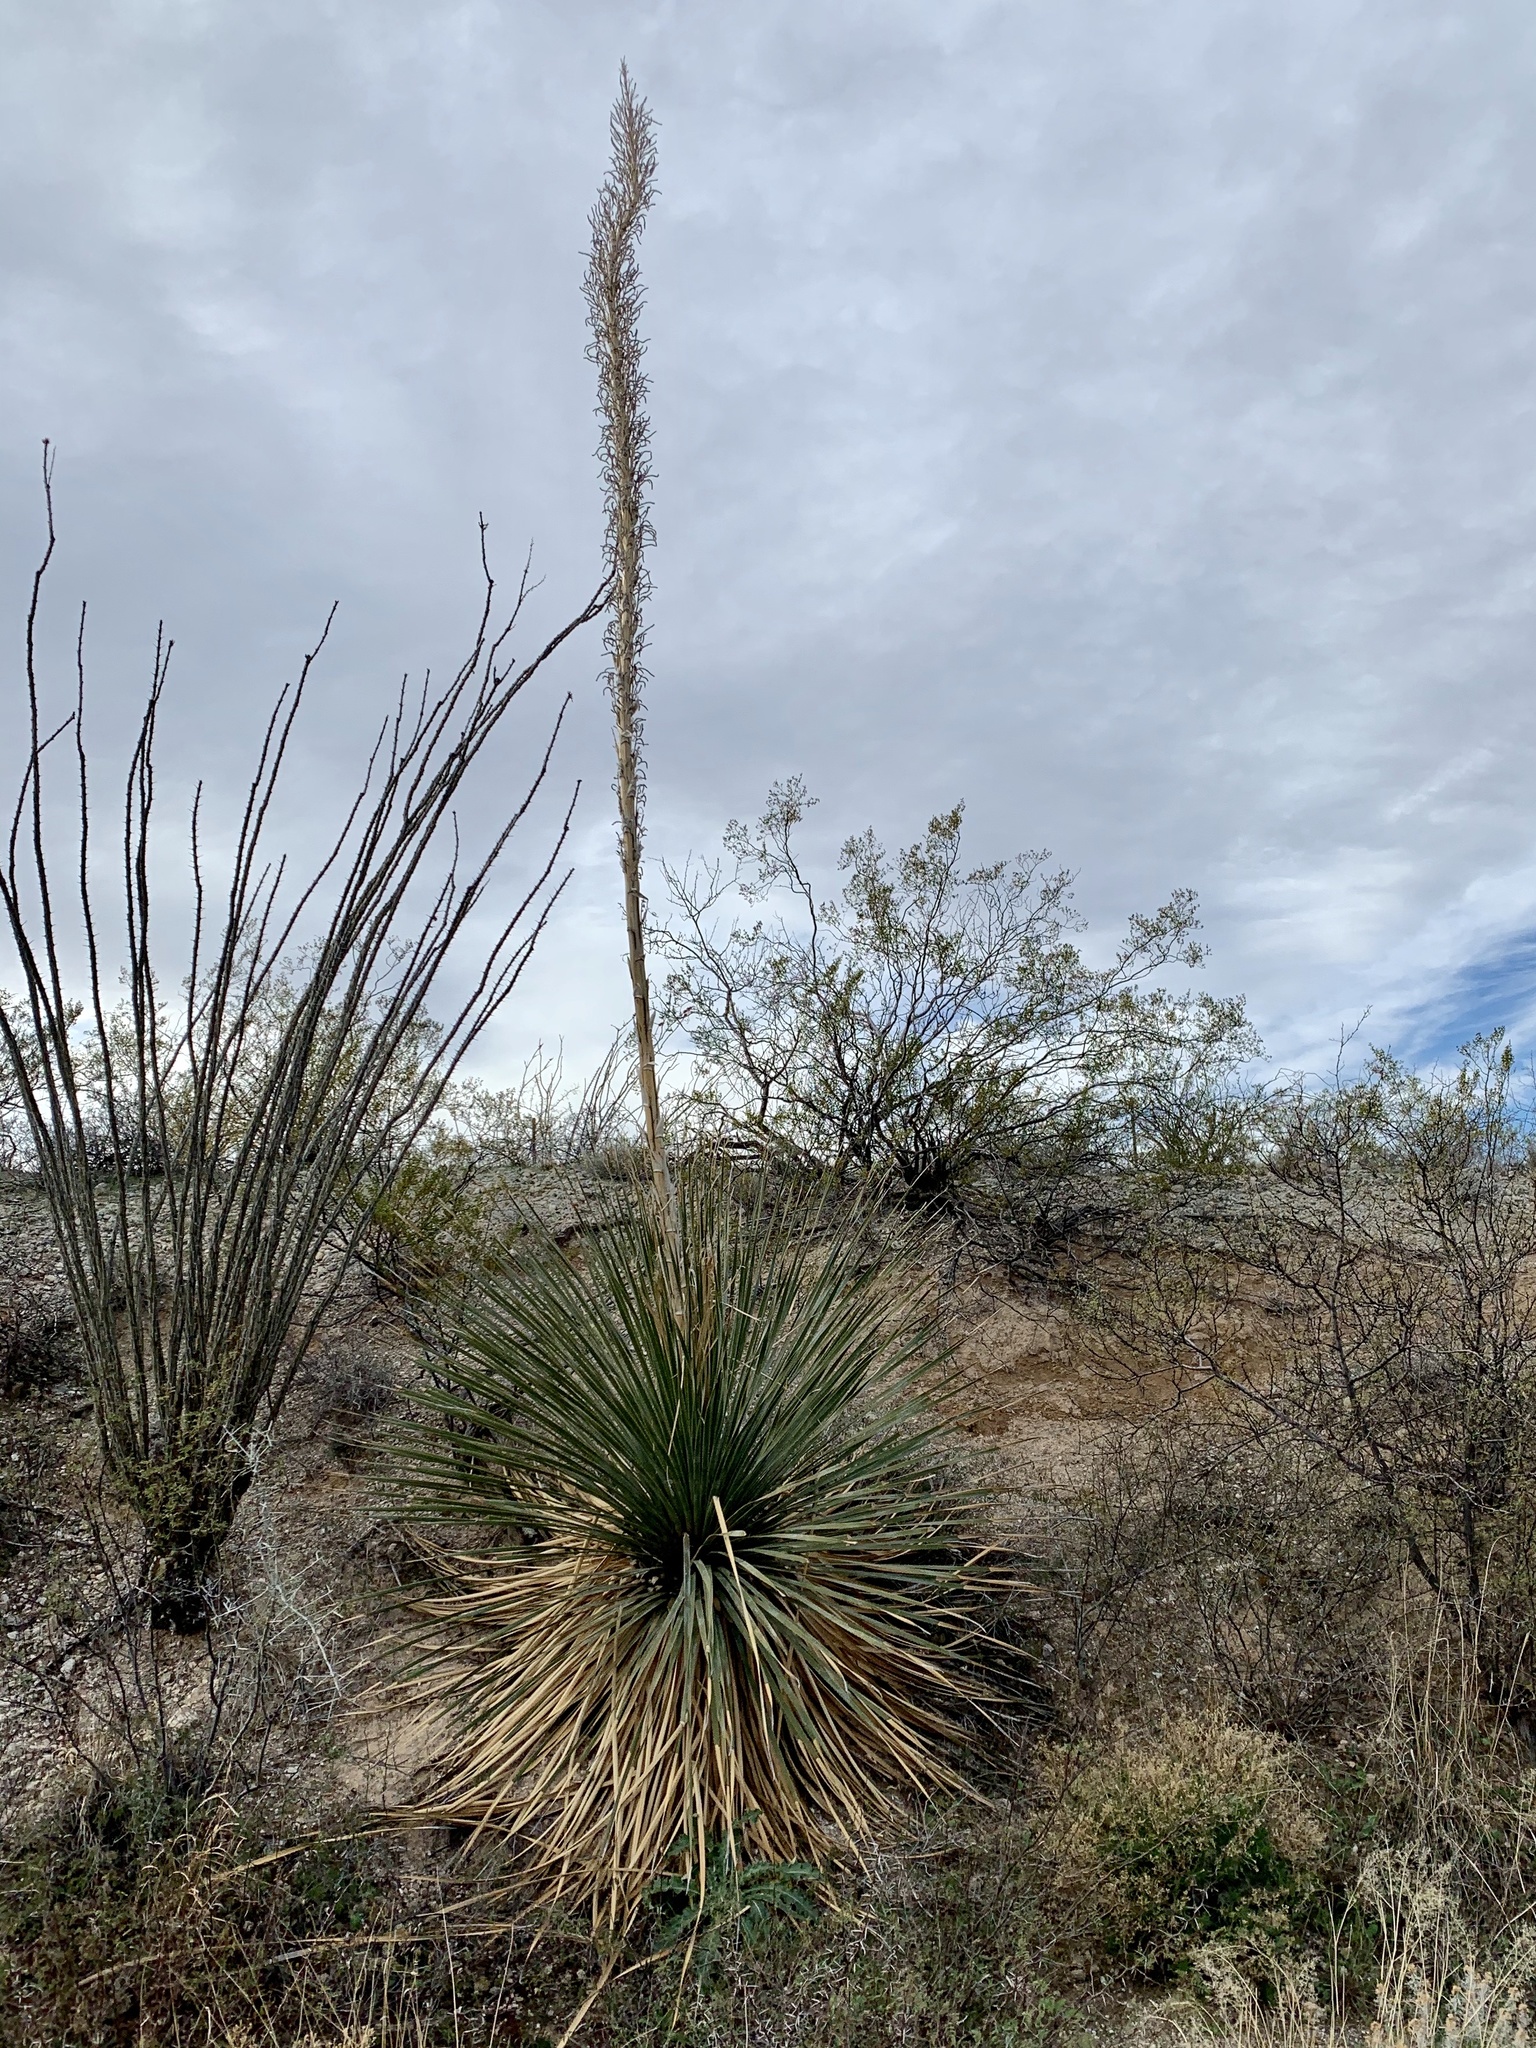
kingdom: Plantae
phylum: Tracheophyta
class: Liliopsida
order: Asparagales
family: Asparagaceae
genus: Dasylirion
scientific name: Dasylirion wheeleri
